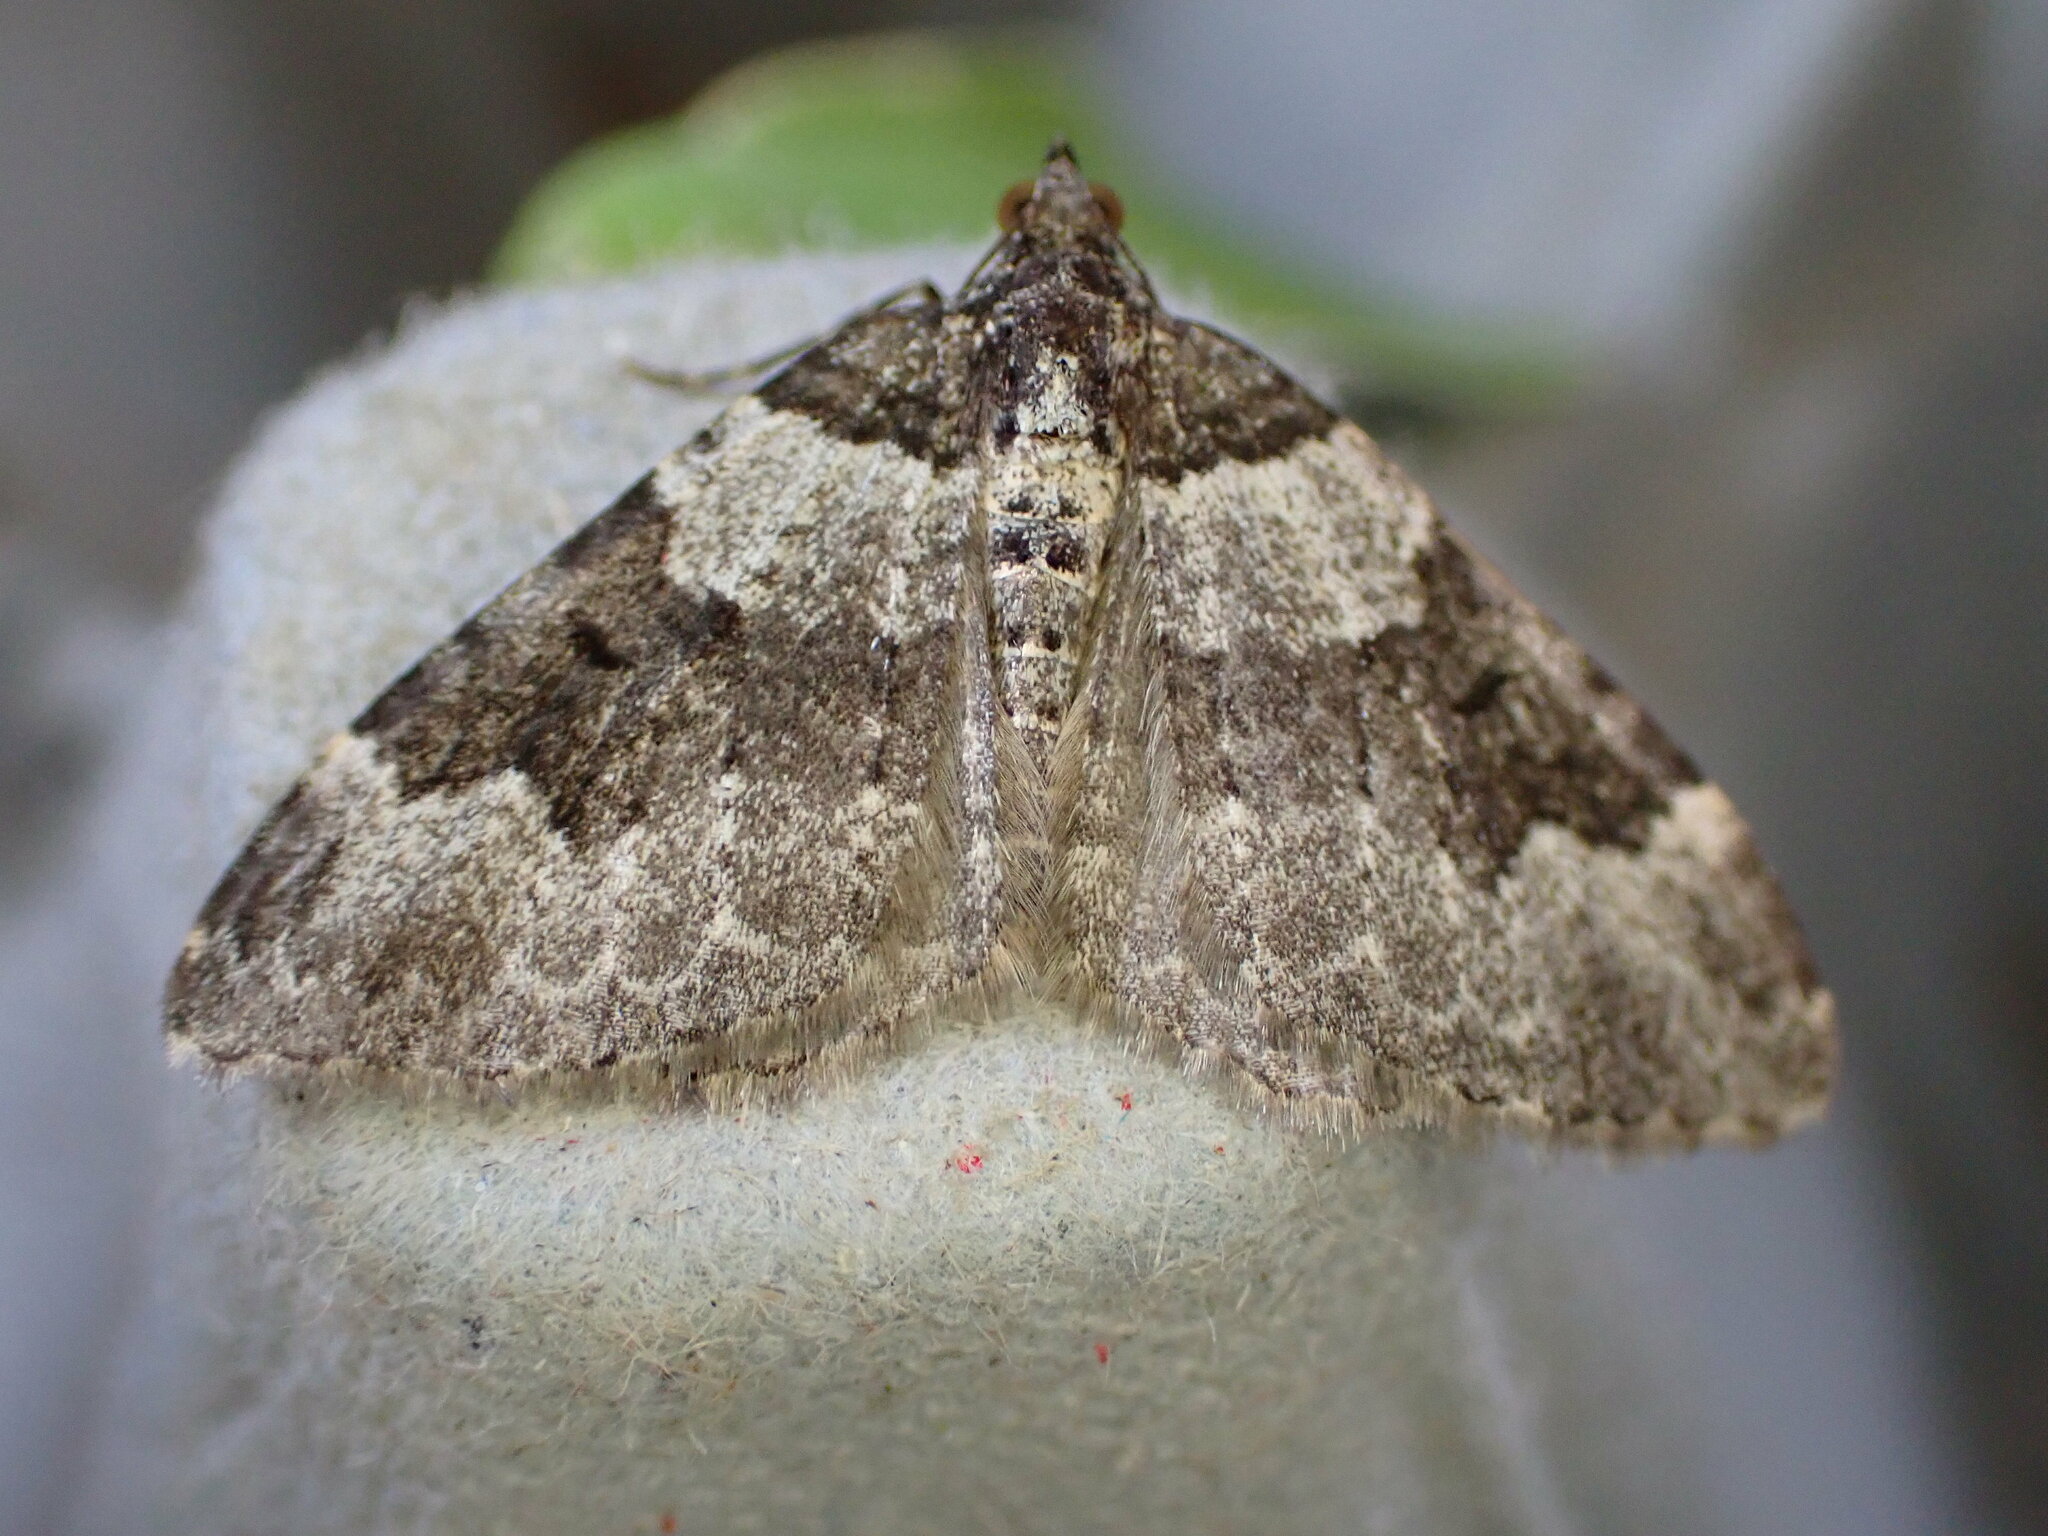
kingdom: Animalia
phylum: Arthropoda
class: Insecta
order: Lepidoptera
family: Geometridae
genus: Xanthorhoe
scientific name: Xanthorhoe fluctuata
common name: Garden carpet
